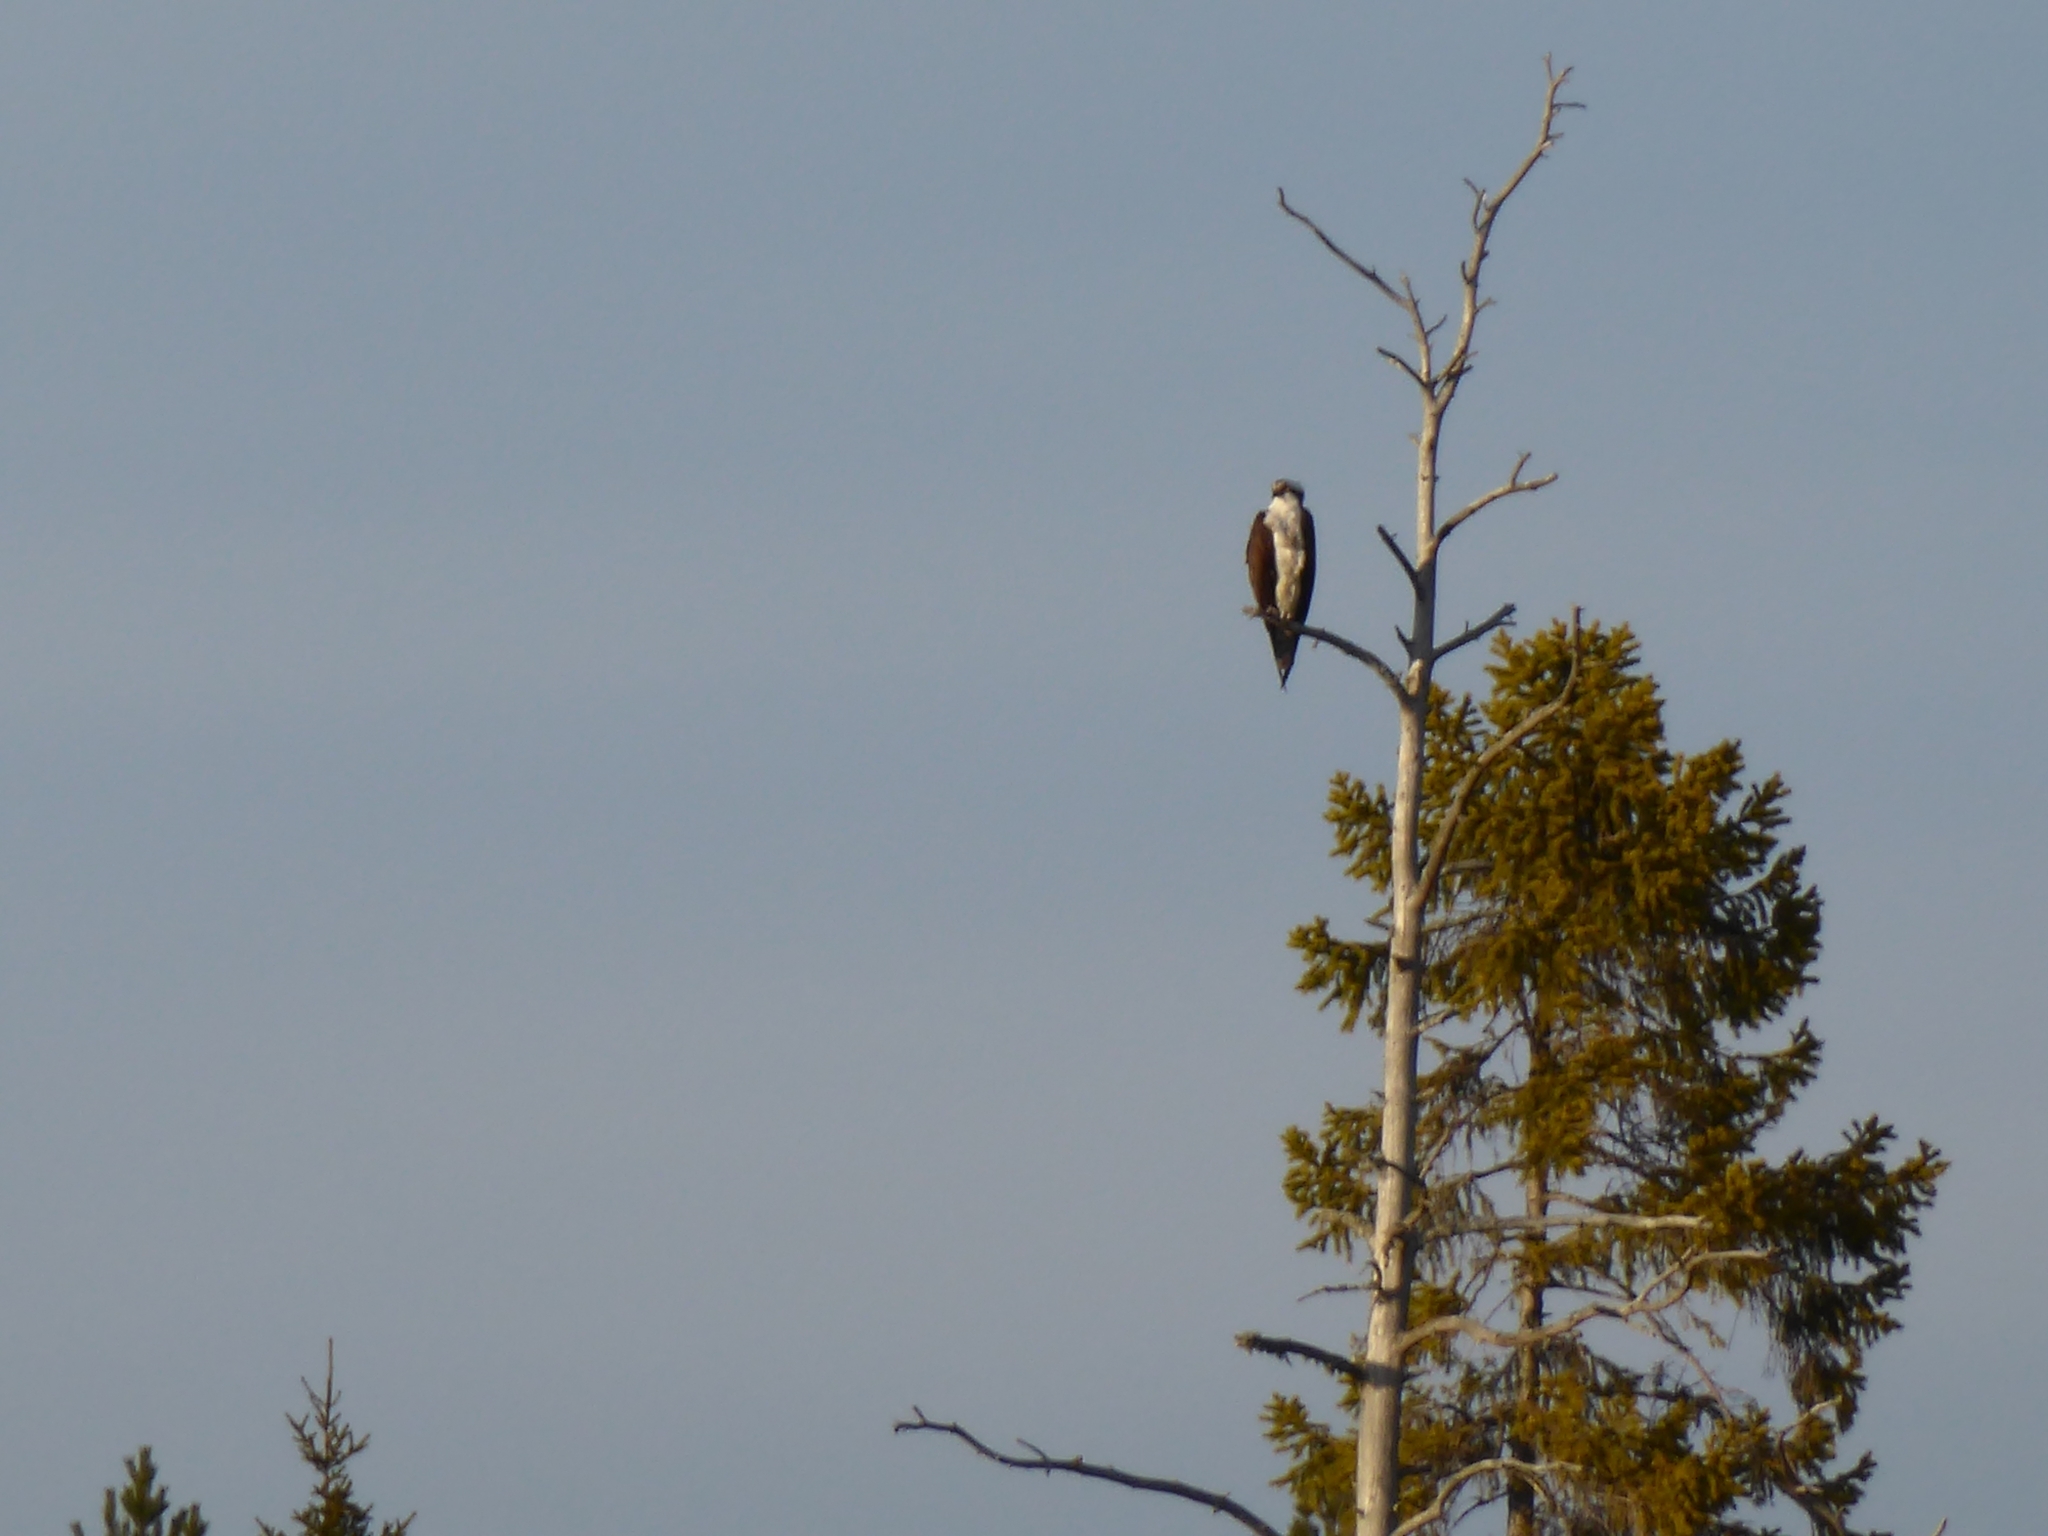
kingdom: Animalia
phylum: Chordata
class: Aves
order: Accipitriformes
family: Pandionidae
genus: Pandion
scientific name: Pandion haliaetus
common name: Osprey
